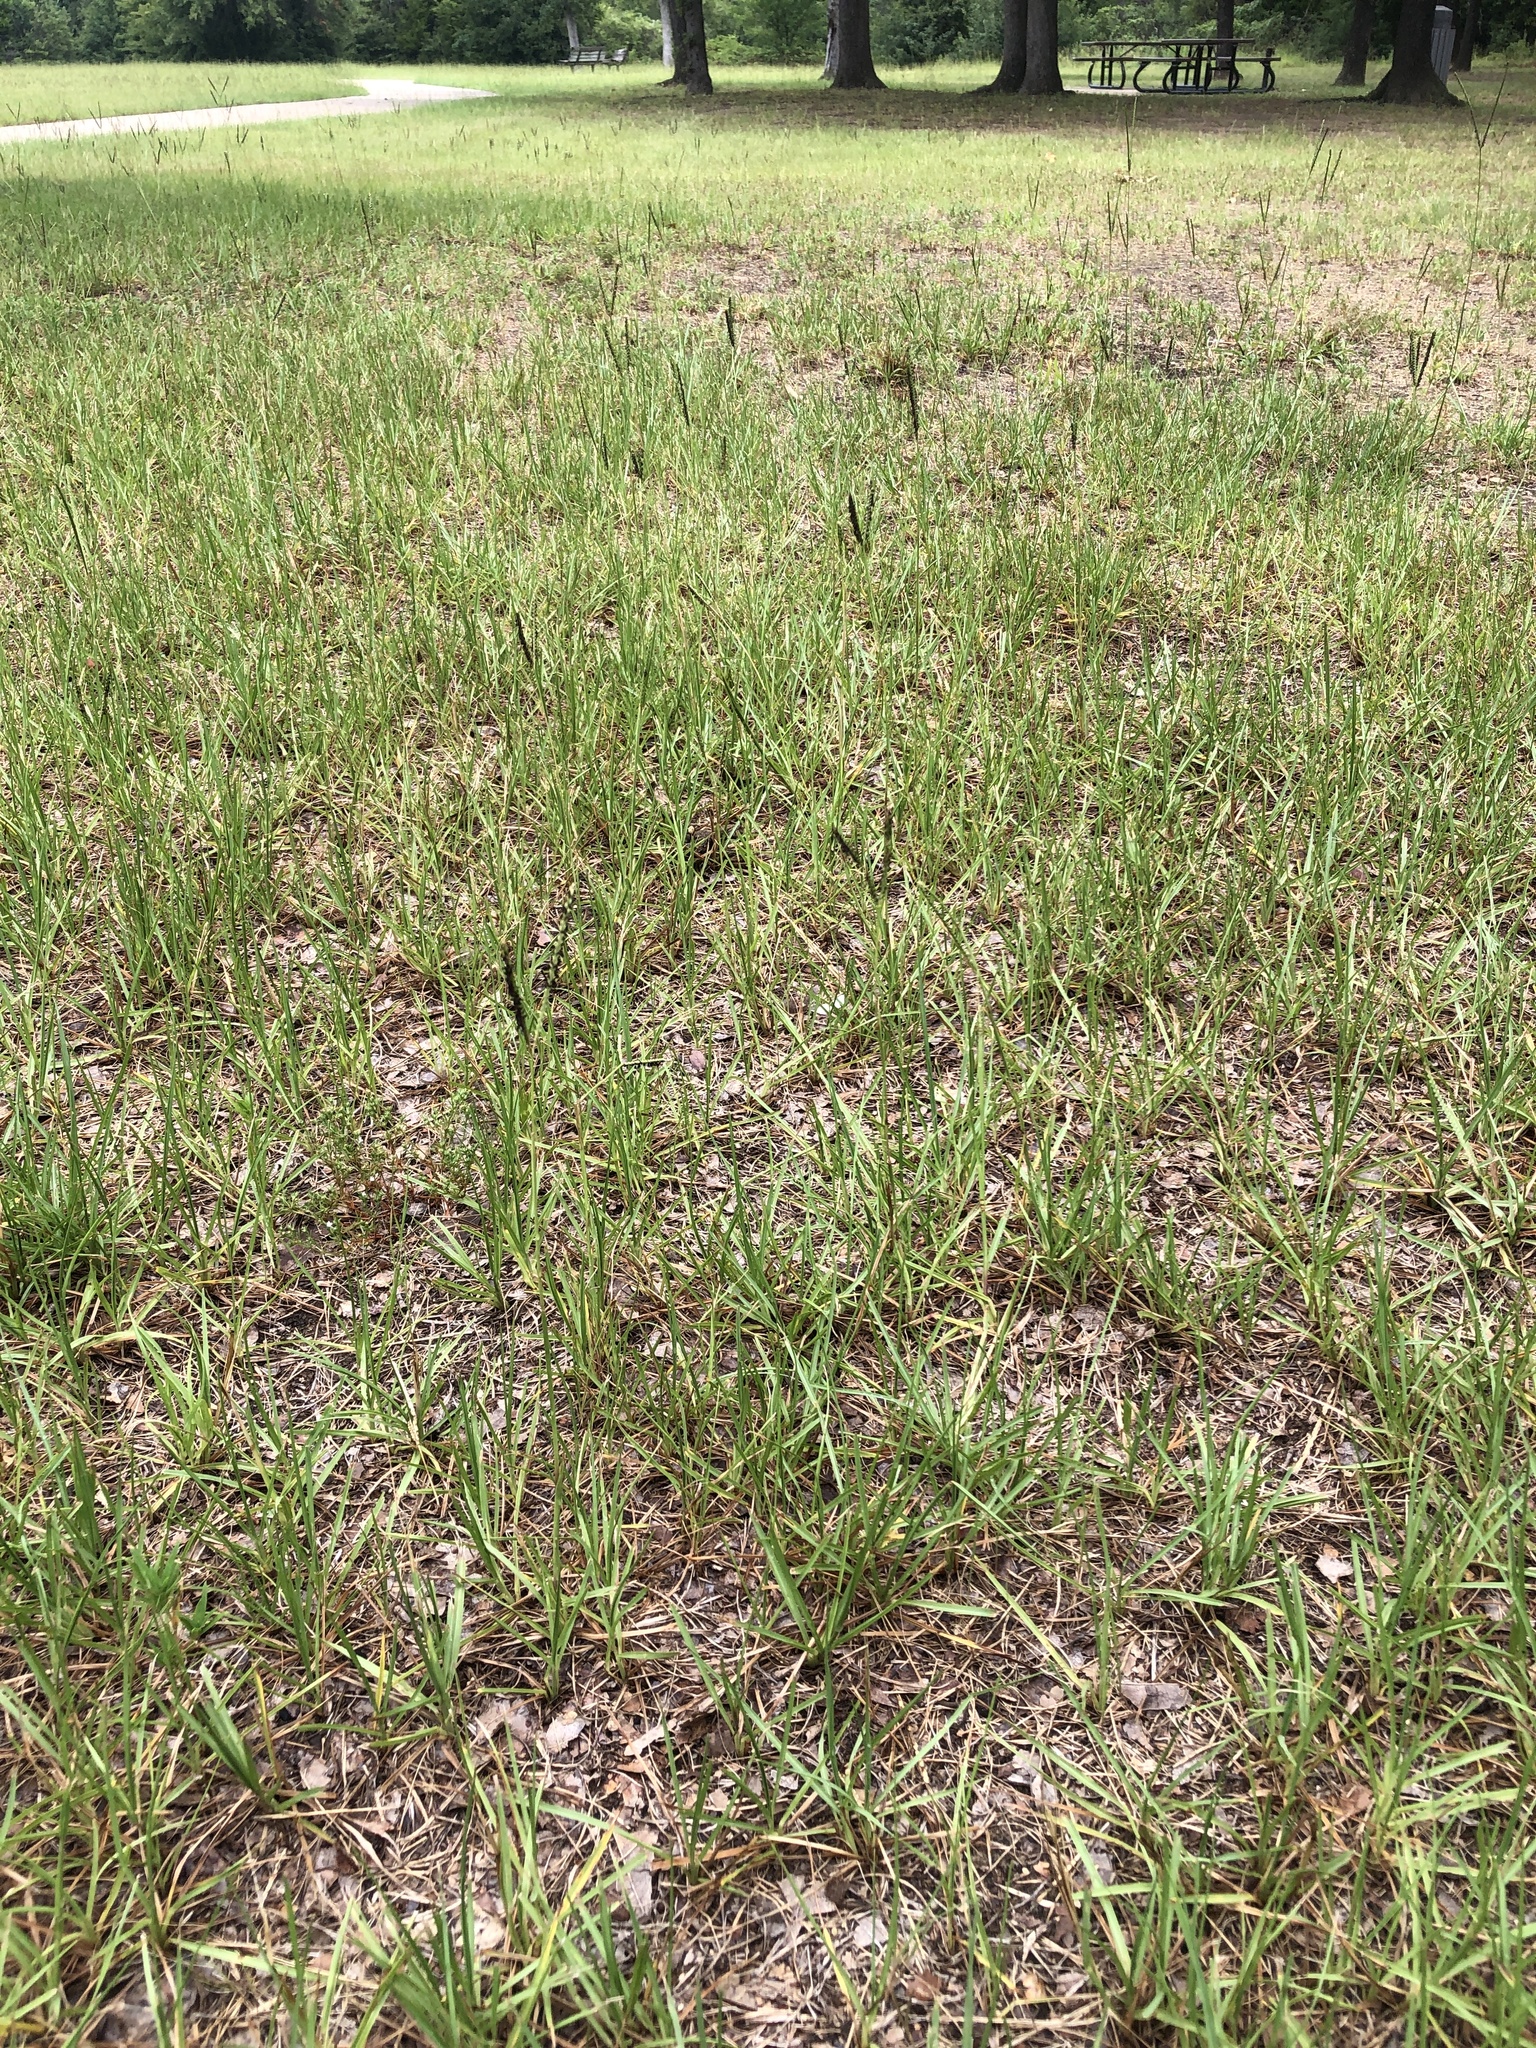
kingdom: Plantae
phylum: Tracheophyta
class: Liliopsida
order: Poales
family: Poaceae
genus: Paspalum
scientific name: Paspalum notatum
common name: Bahiagrass
